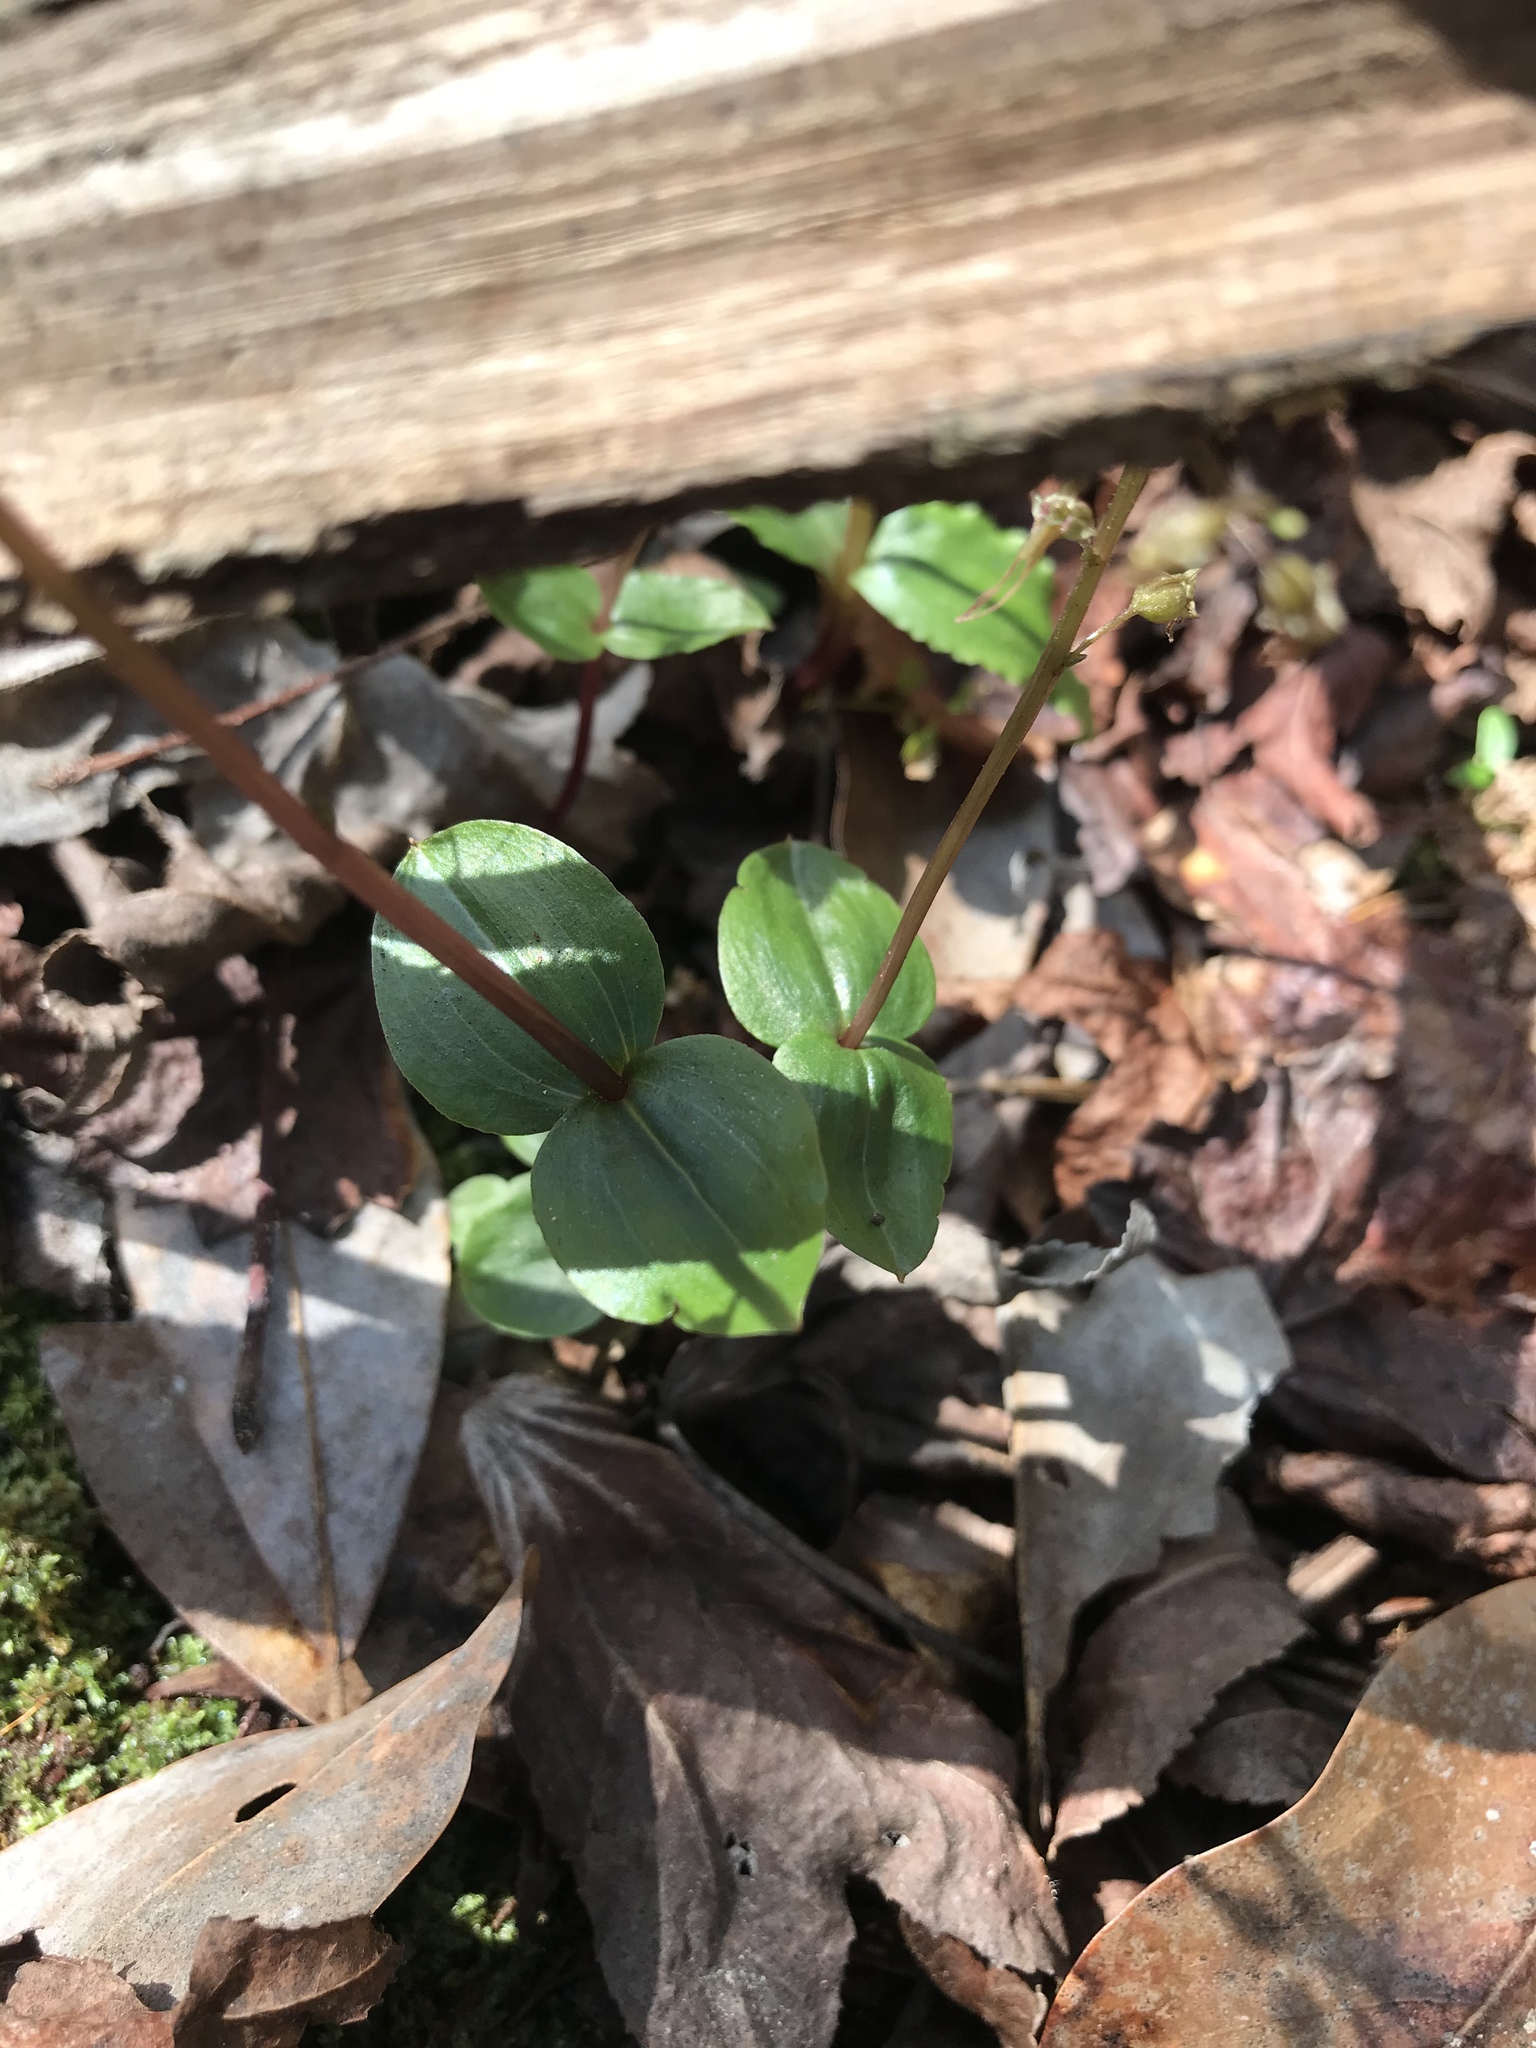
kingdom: Plantae
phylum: Tracheophyta
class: Liliopsida
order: Asparagales
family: Orchidaceae
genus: Neottia
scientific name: Neottia bifolia
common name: Southern twayblade
